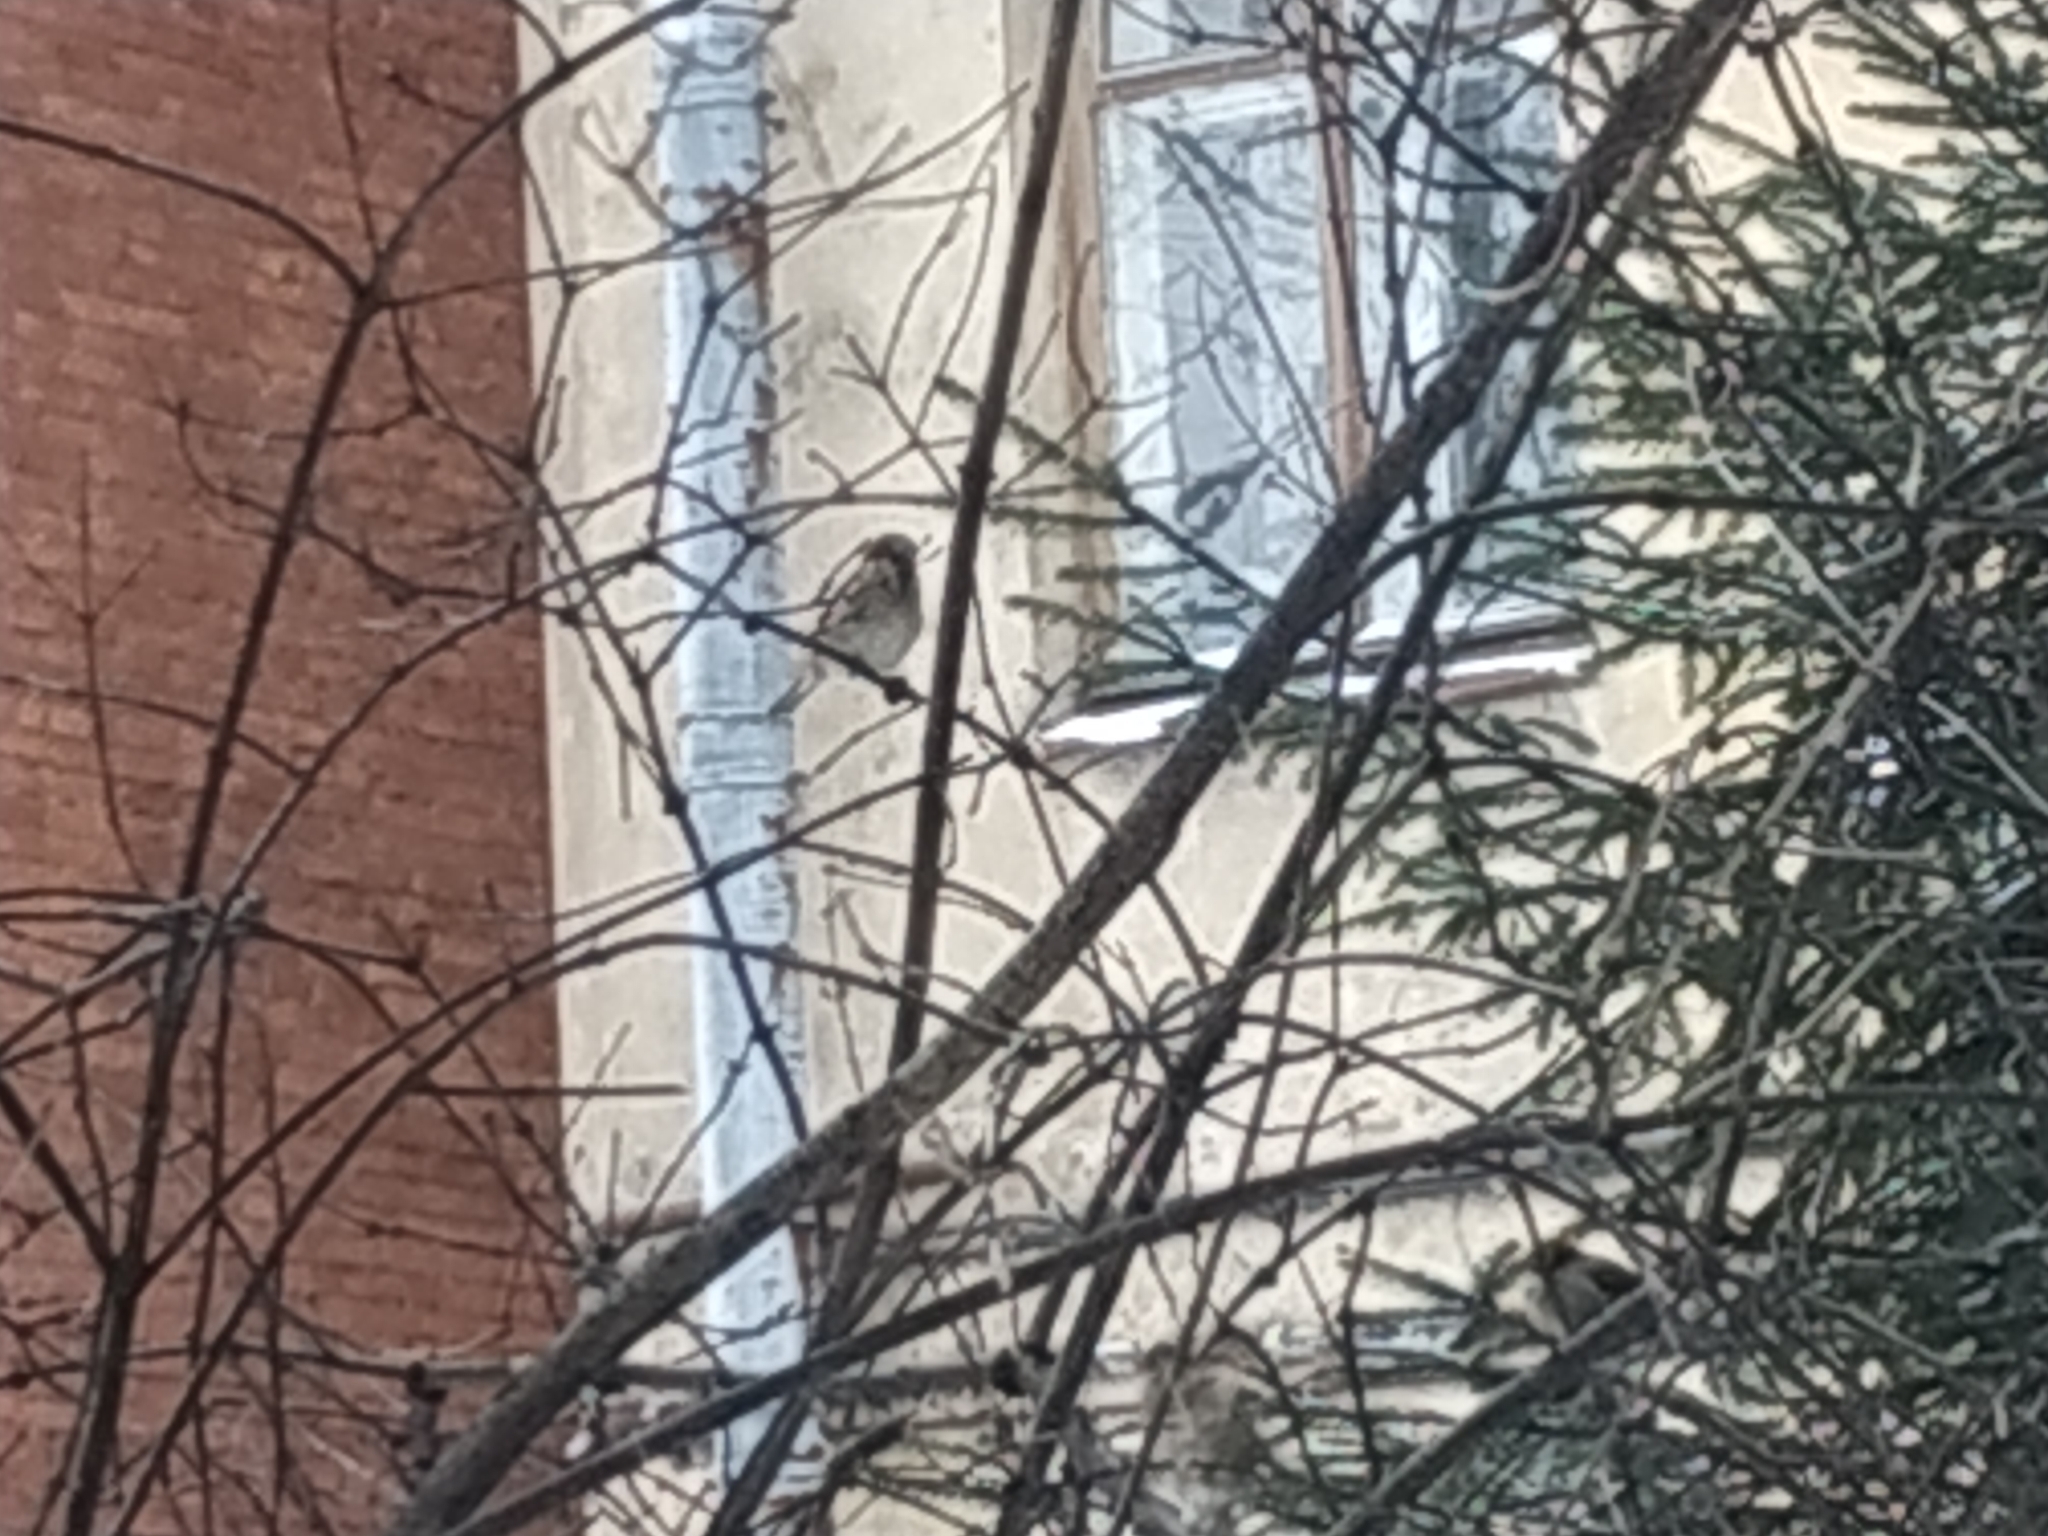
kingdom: Animalia
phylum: Chordata
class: Aves
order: Passeriformes
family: Passeridae
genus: Passer
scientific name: Passer domesticus
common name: House sparrow
